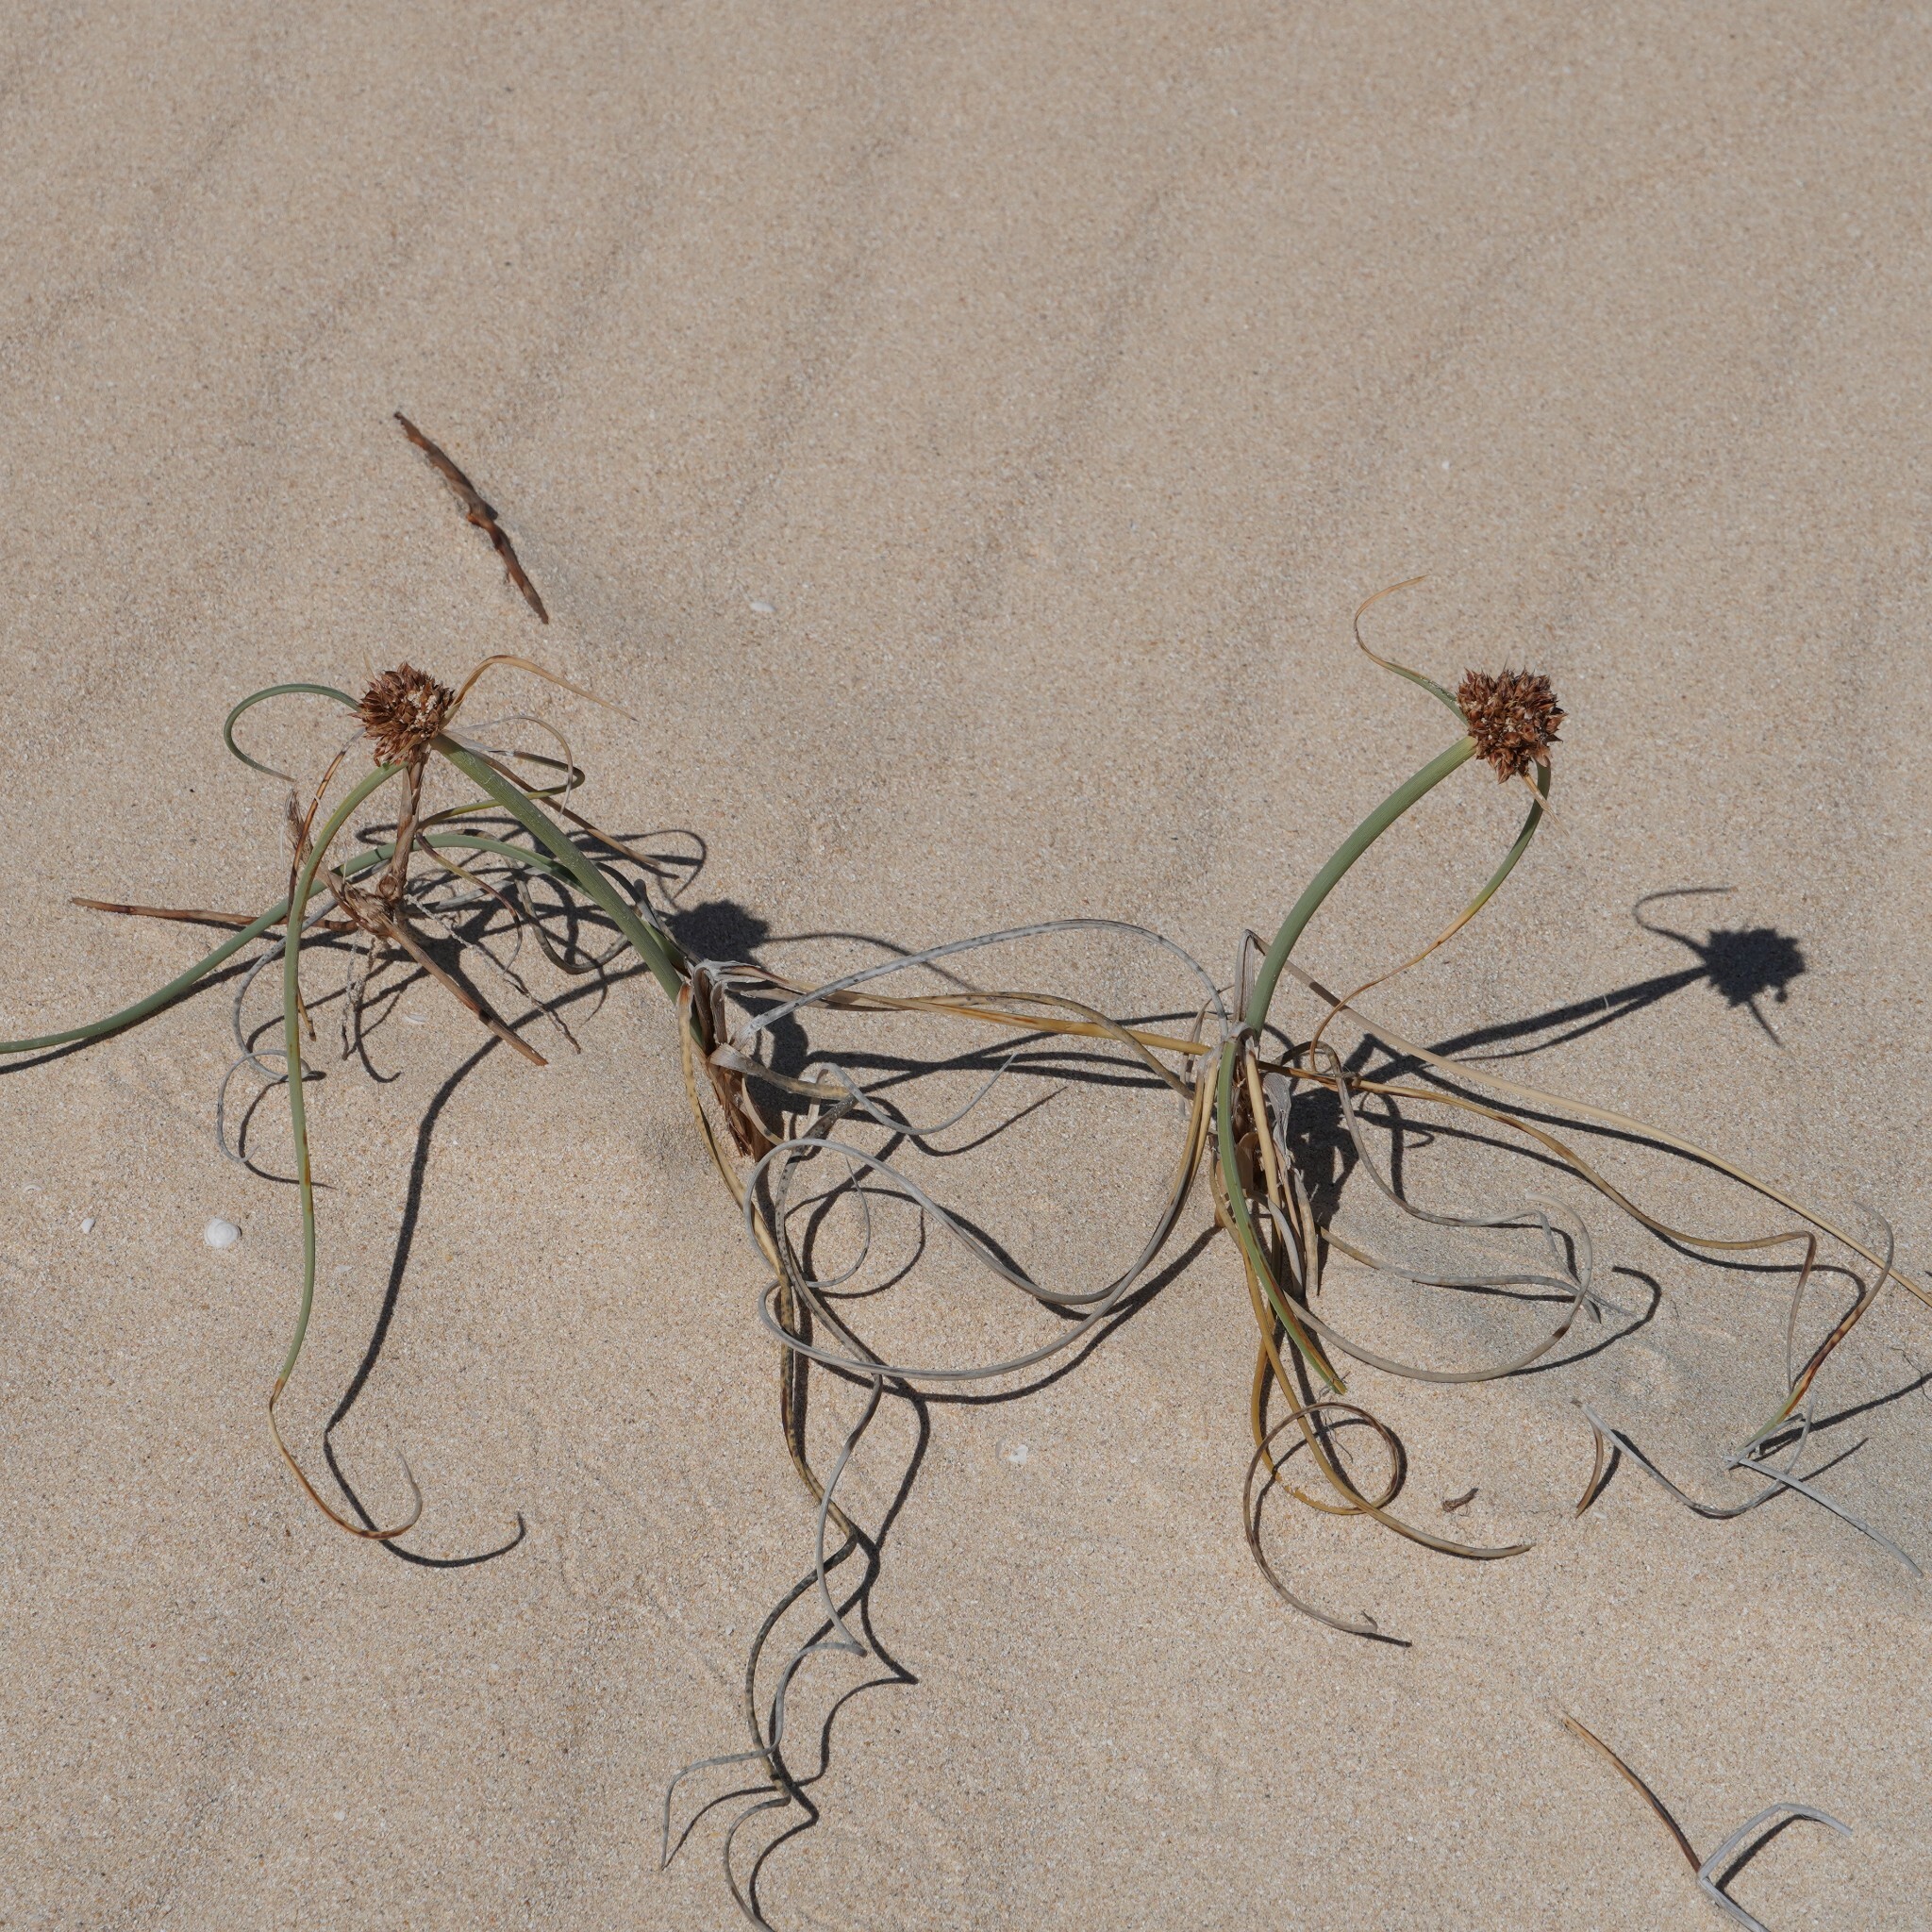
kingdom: Plantae
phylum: Tracheophyta
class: Liliopsida
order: Poales
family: Cyperaceae
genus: Cyperus
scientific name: Cyperus capitatus
